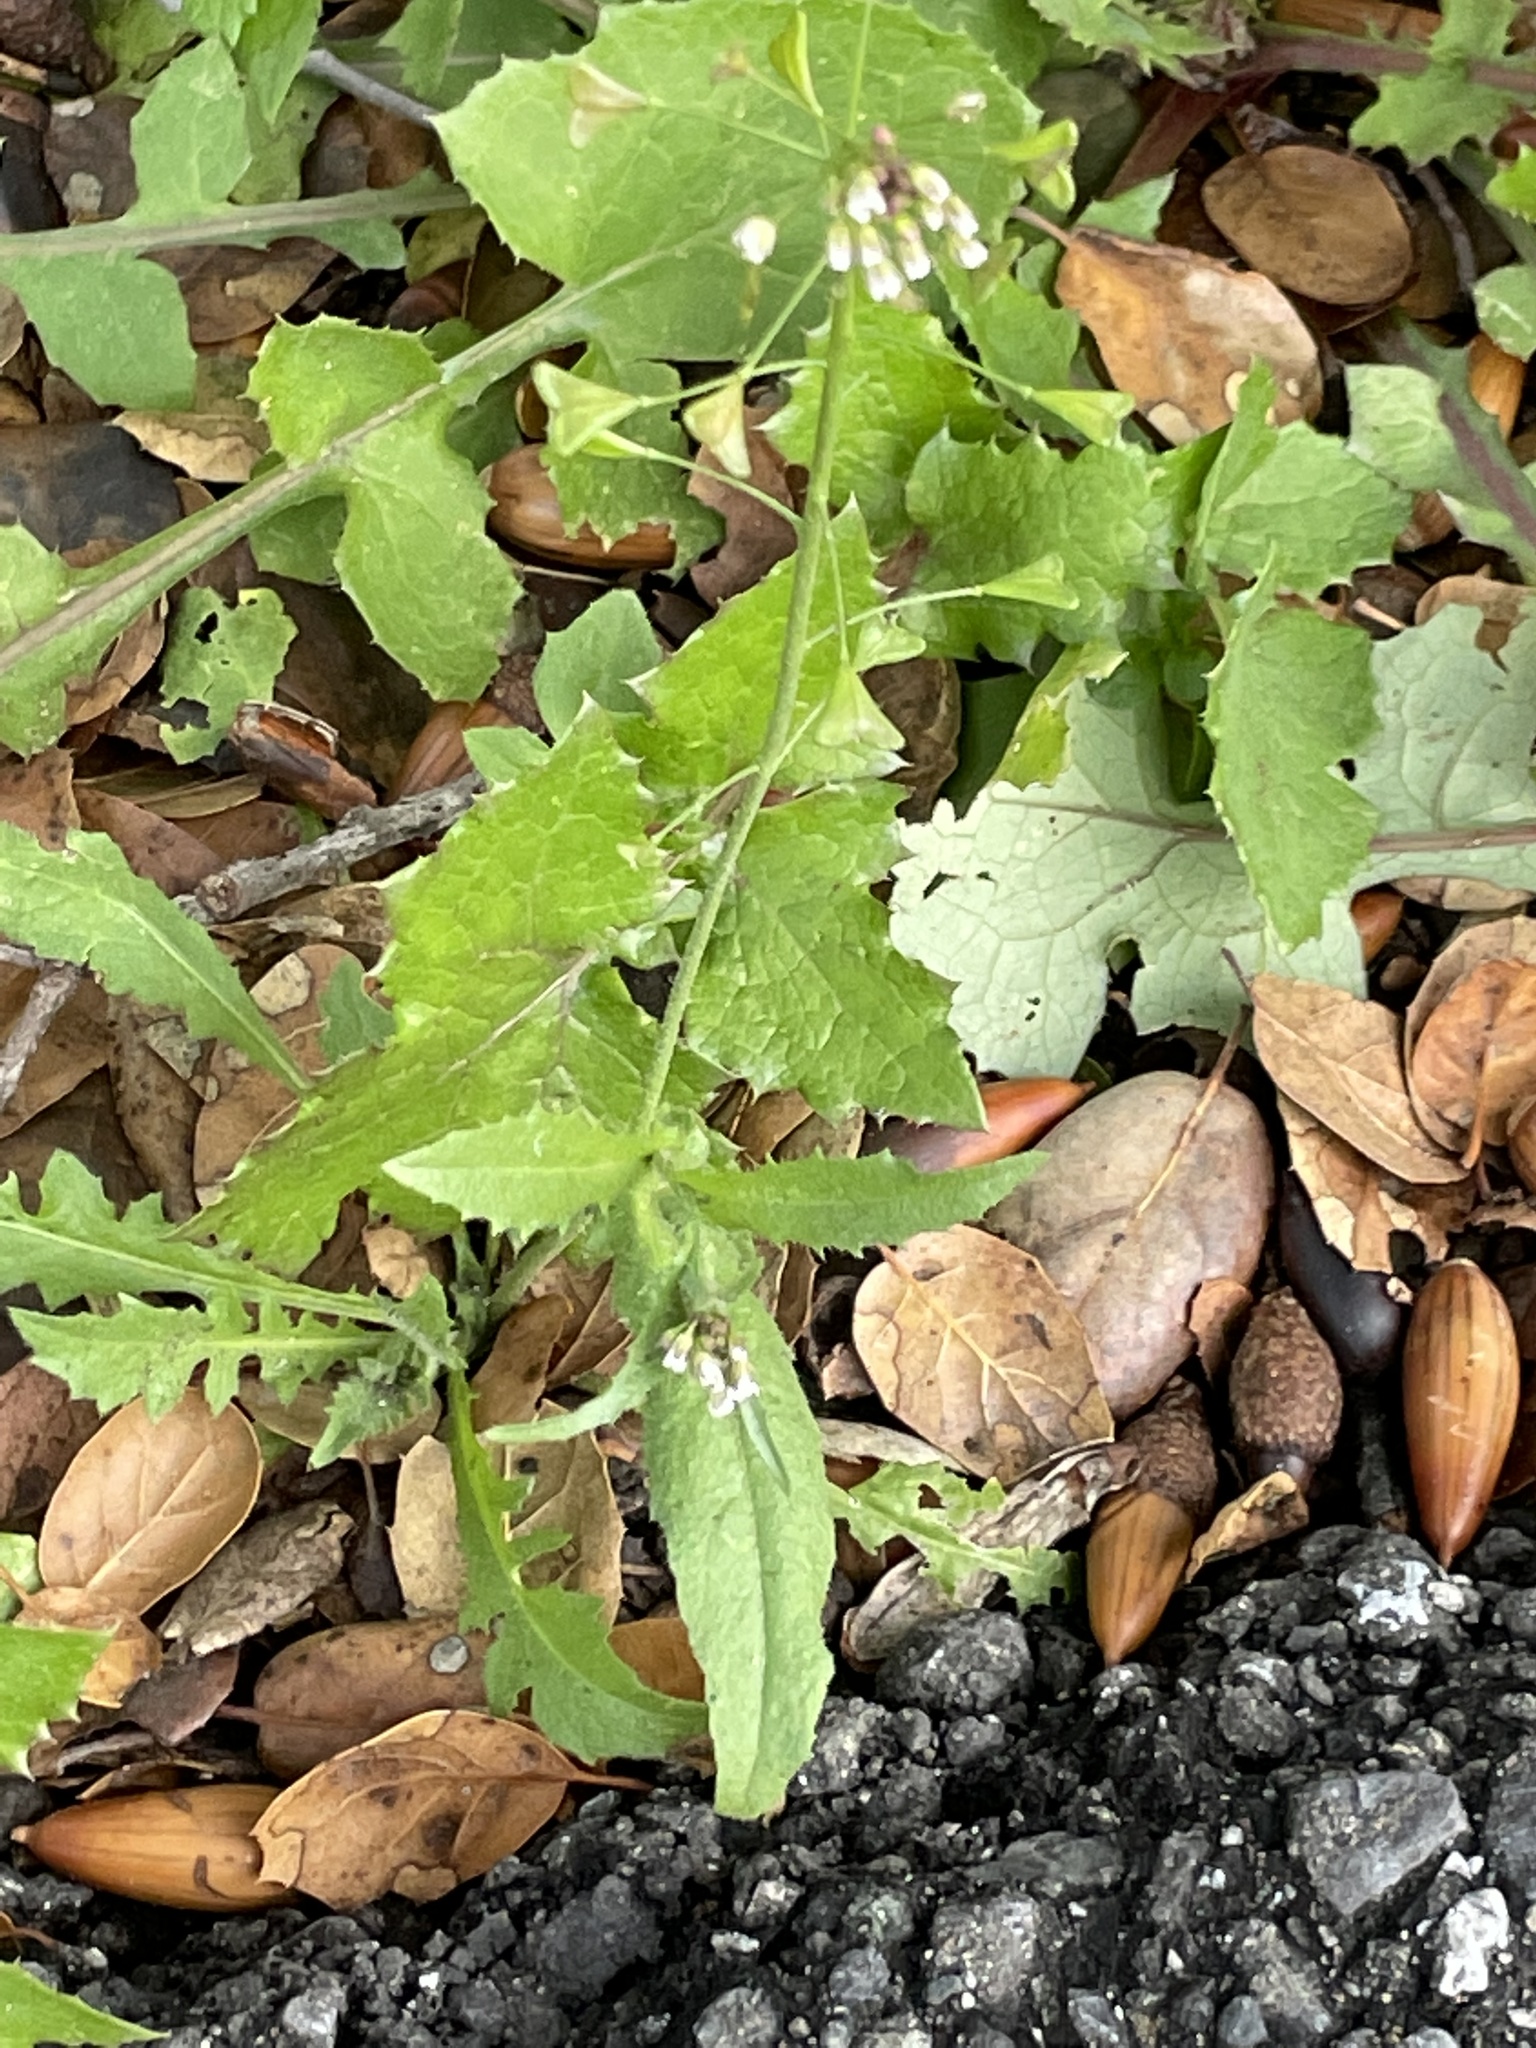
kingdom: Plantae
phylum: Tracheophyta
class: Magnoliopsida
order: Brassicales
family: Brassicaceae
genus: Capsella
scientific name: Capsella bursa-pastoris
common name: Shepherd's purse
